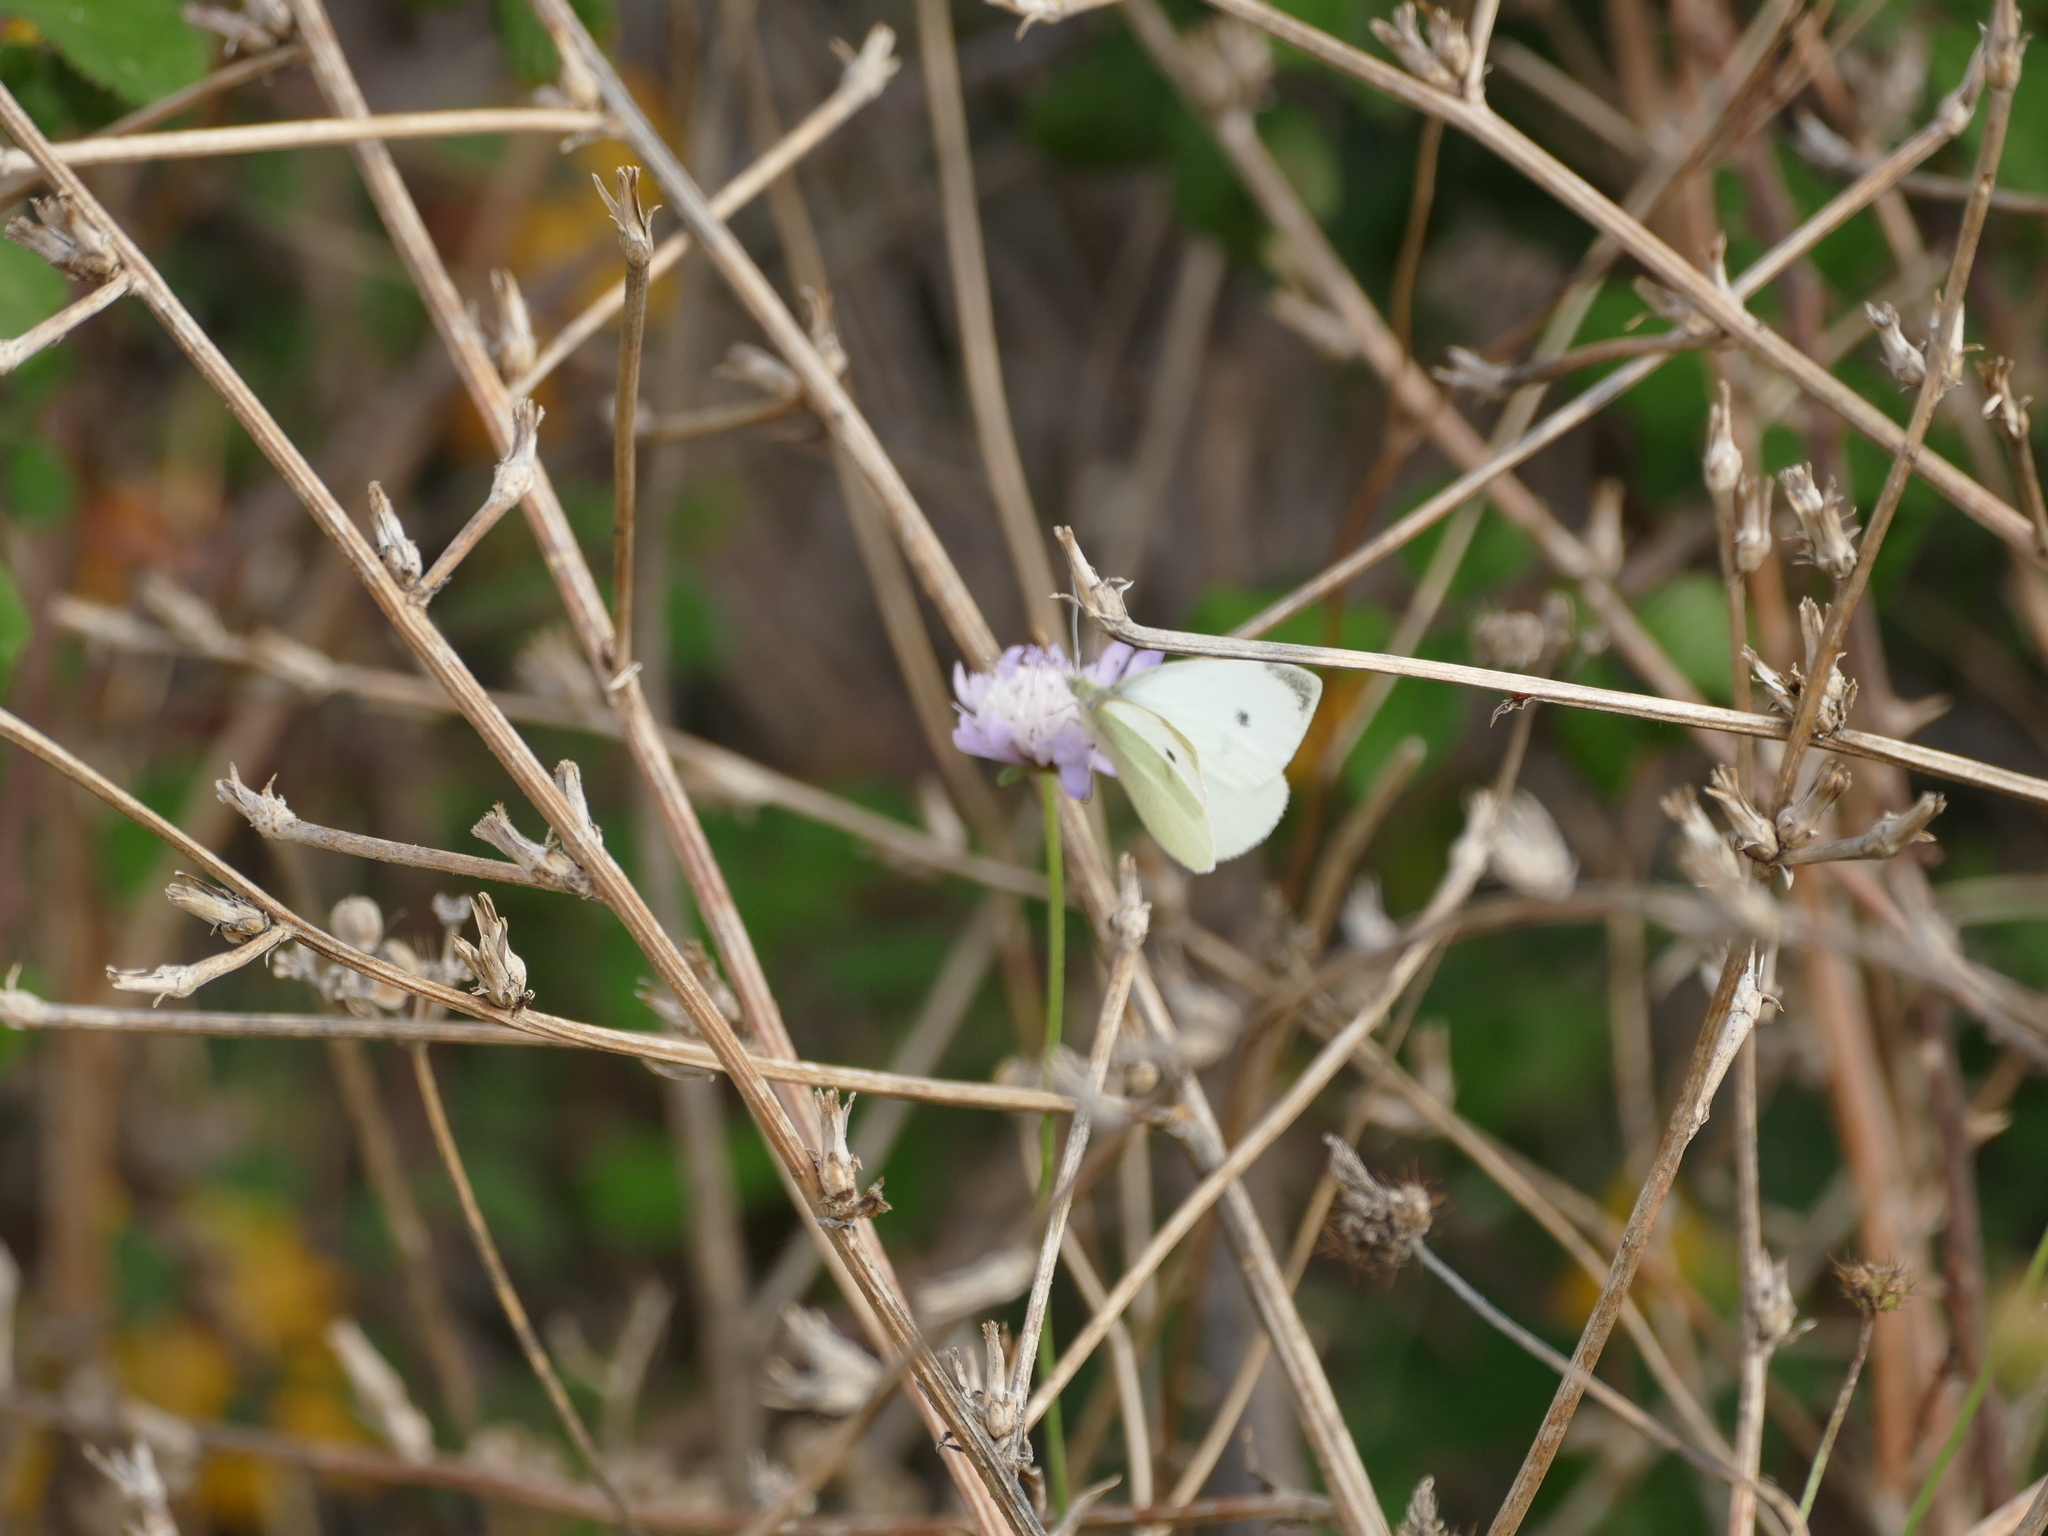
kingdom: Animalia
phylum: Arthropoda
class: Insecta
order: Lepidoptera
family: Pieridae
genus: Pieris
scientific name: Pieris rapae
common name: Small white
